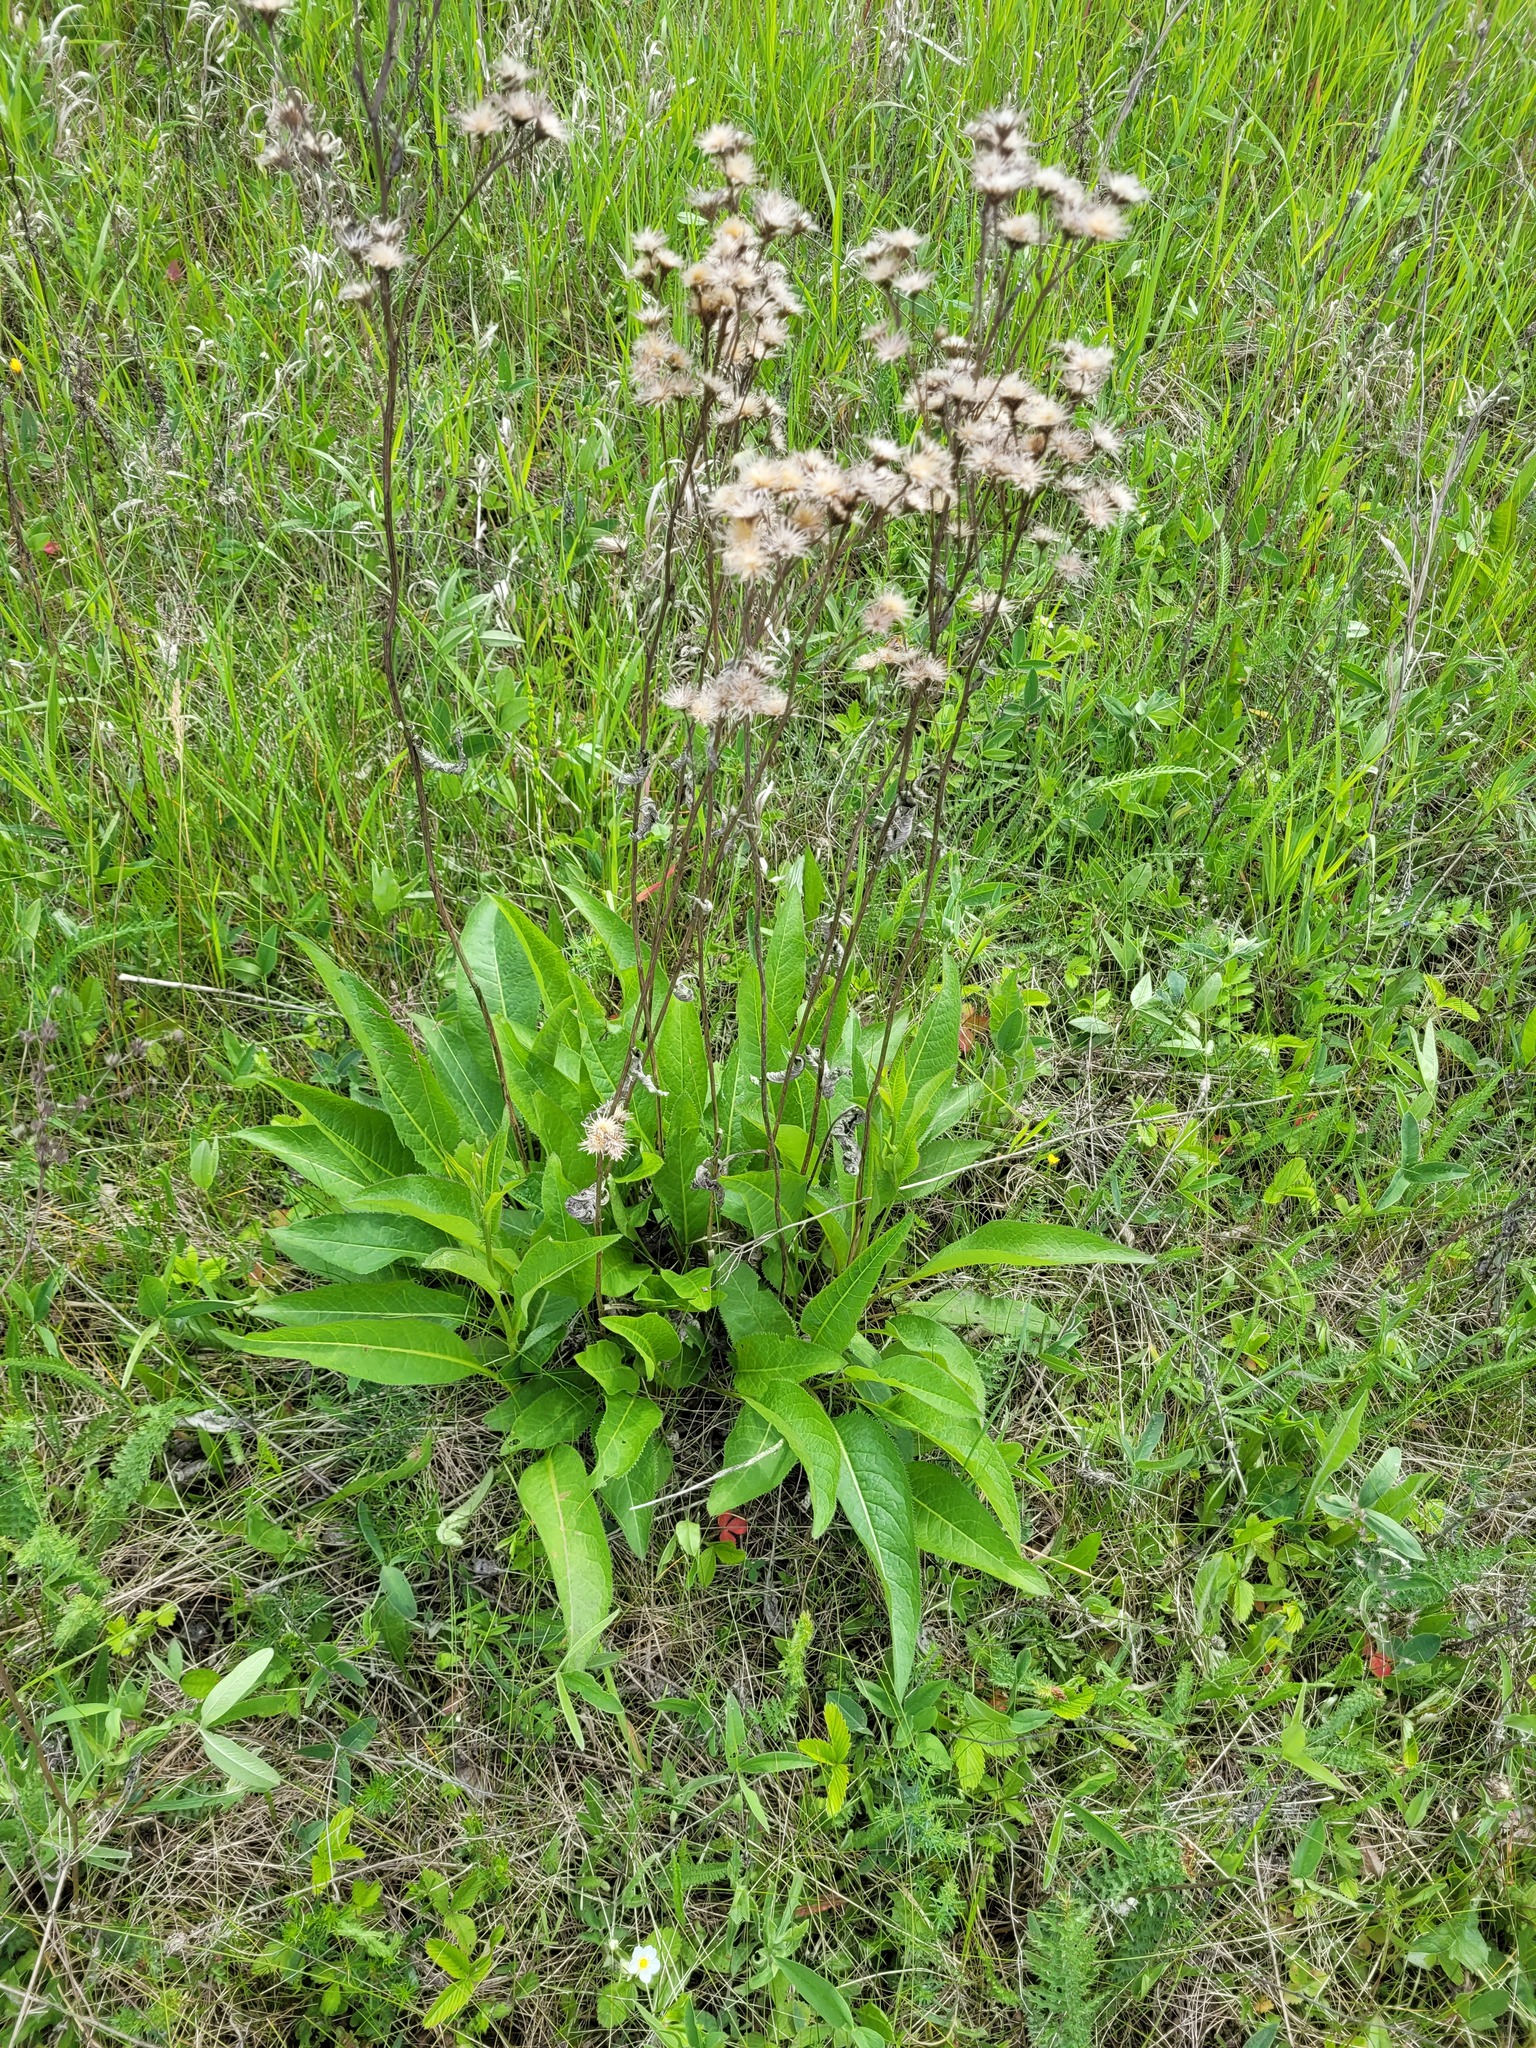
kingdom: Plantae
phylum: Tracheophyta
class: Magnoliopsida
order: Asterales
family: Asteraceae
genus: Serratula
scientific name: Serratula tinctoria
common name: Saw-wort
